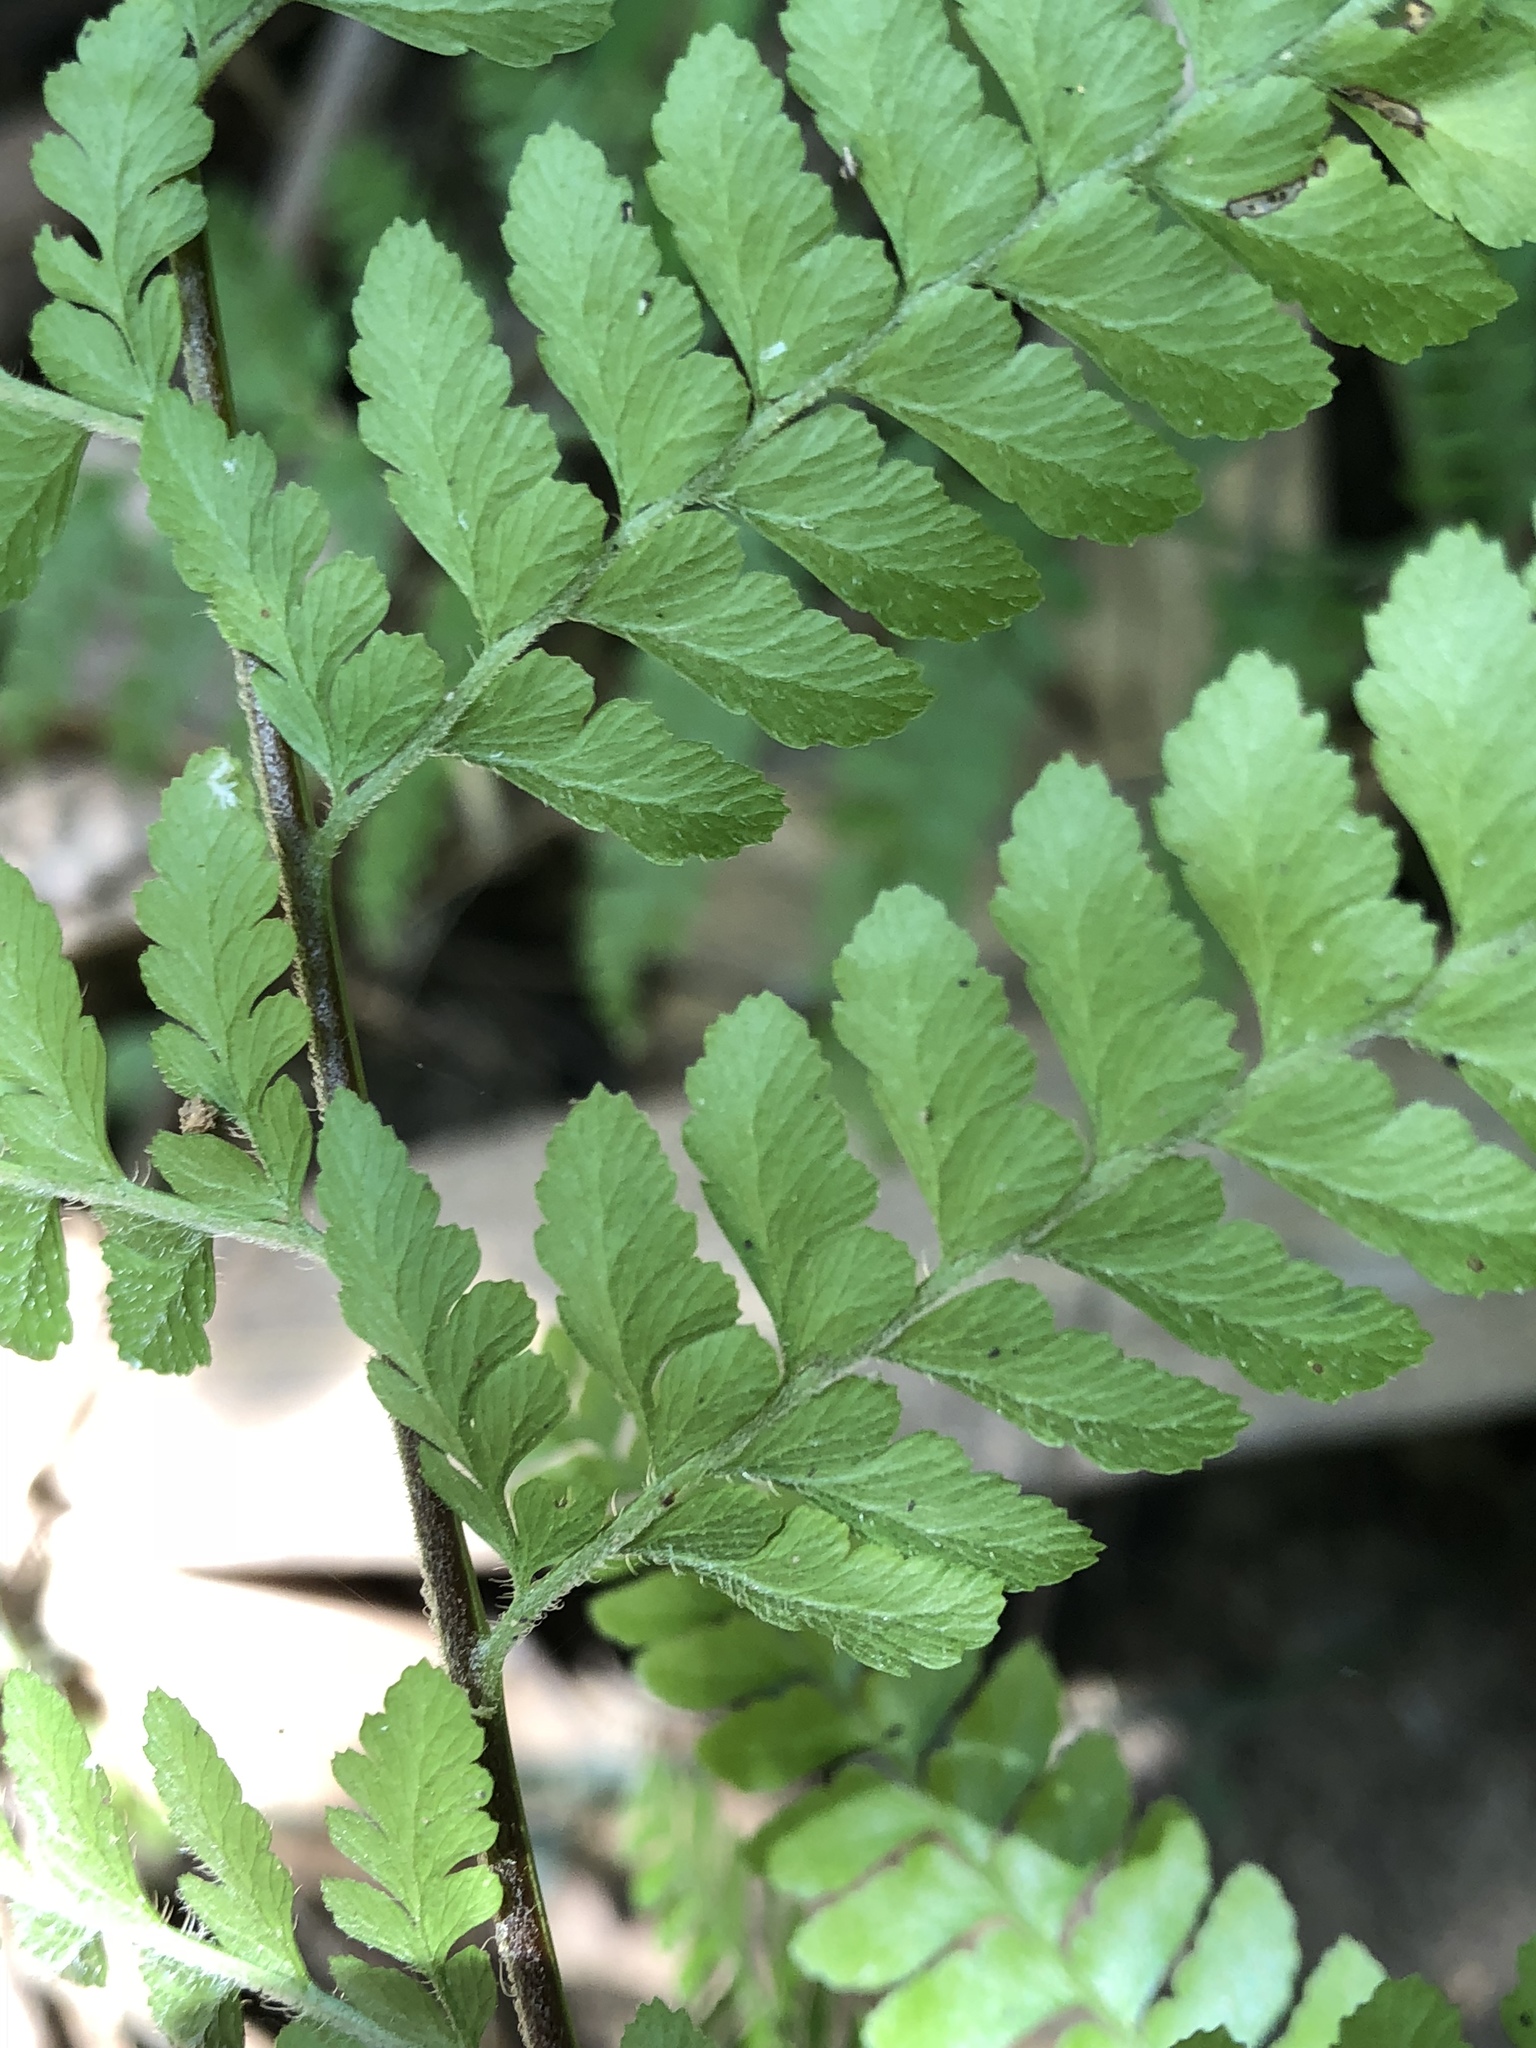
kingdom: Plantae
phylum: Tracheophyta
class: Polypodiopsida
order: Polypodiales
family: Dennstaedtiaceae
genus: Microlepia
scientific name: Microlepia strigosa
